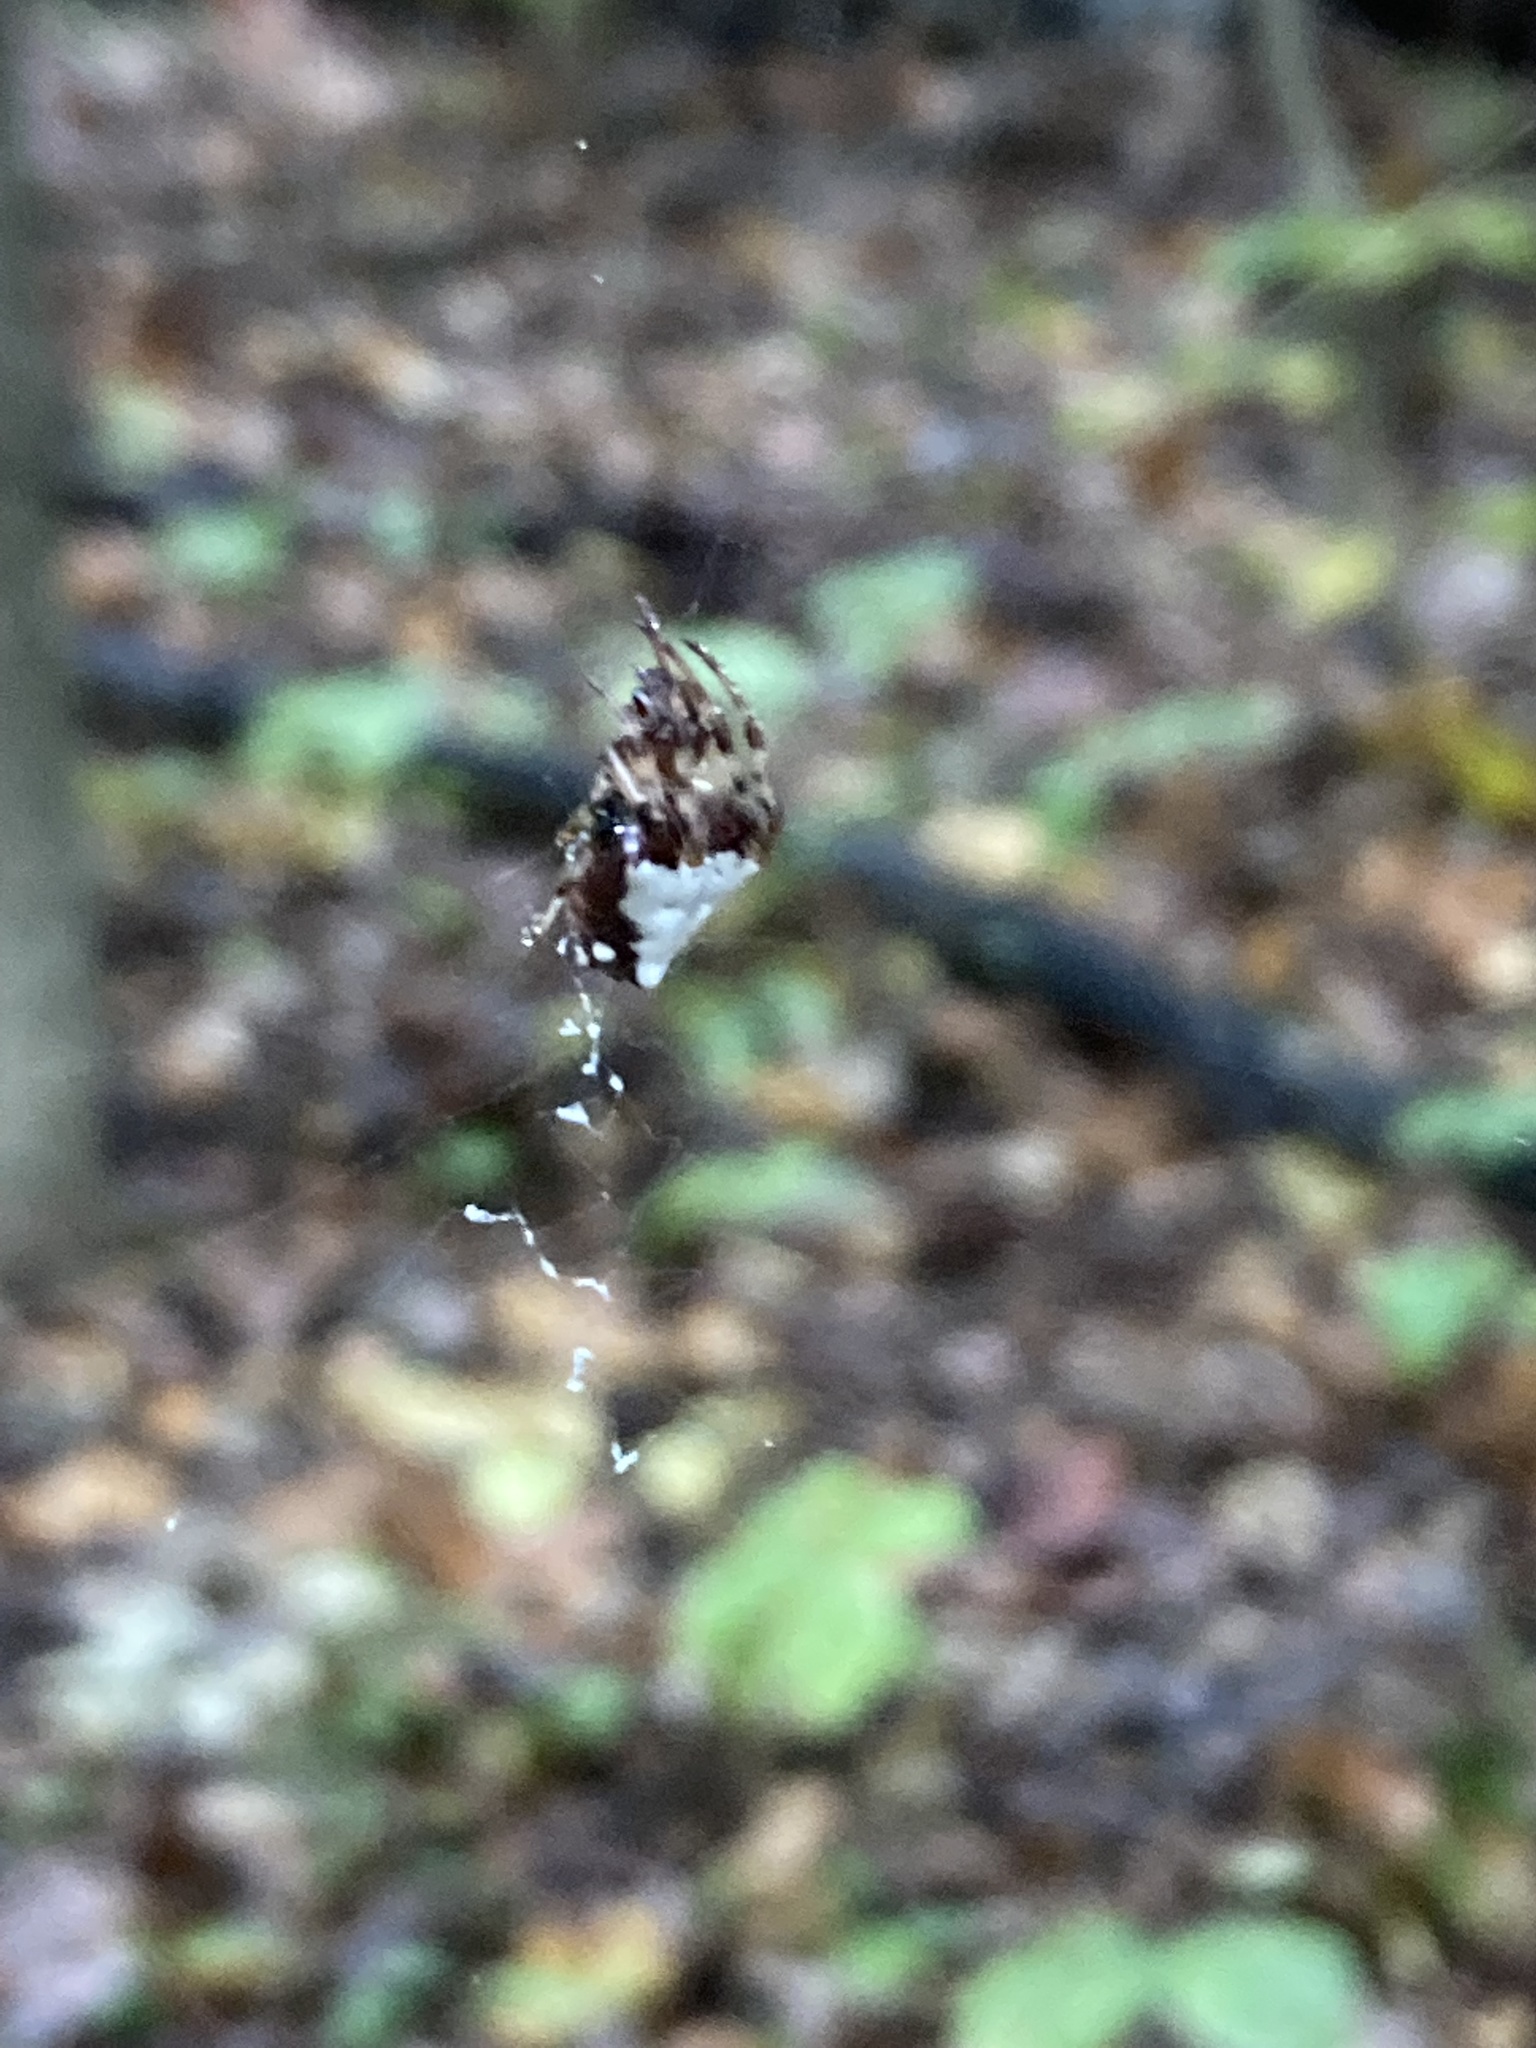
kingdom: Animalia
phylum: Arthropoda
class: Arachnida
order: Araneae
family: Araneidae
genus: Verrucosa
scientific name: Verrucosa arenata
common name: Orb weavers
